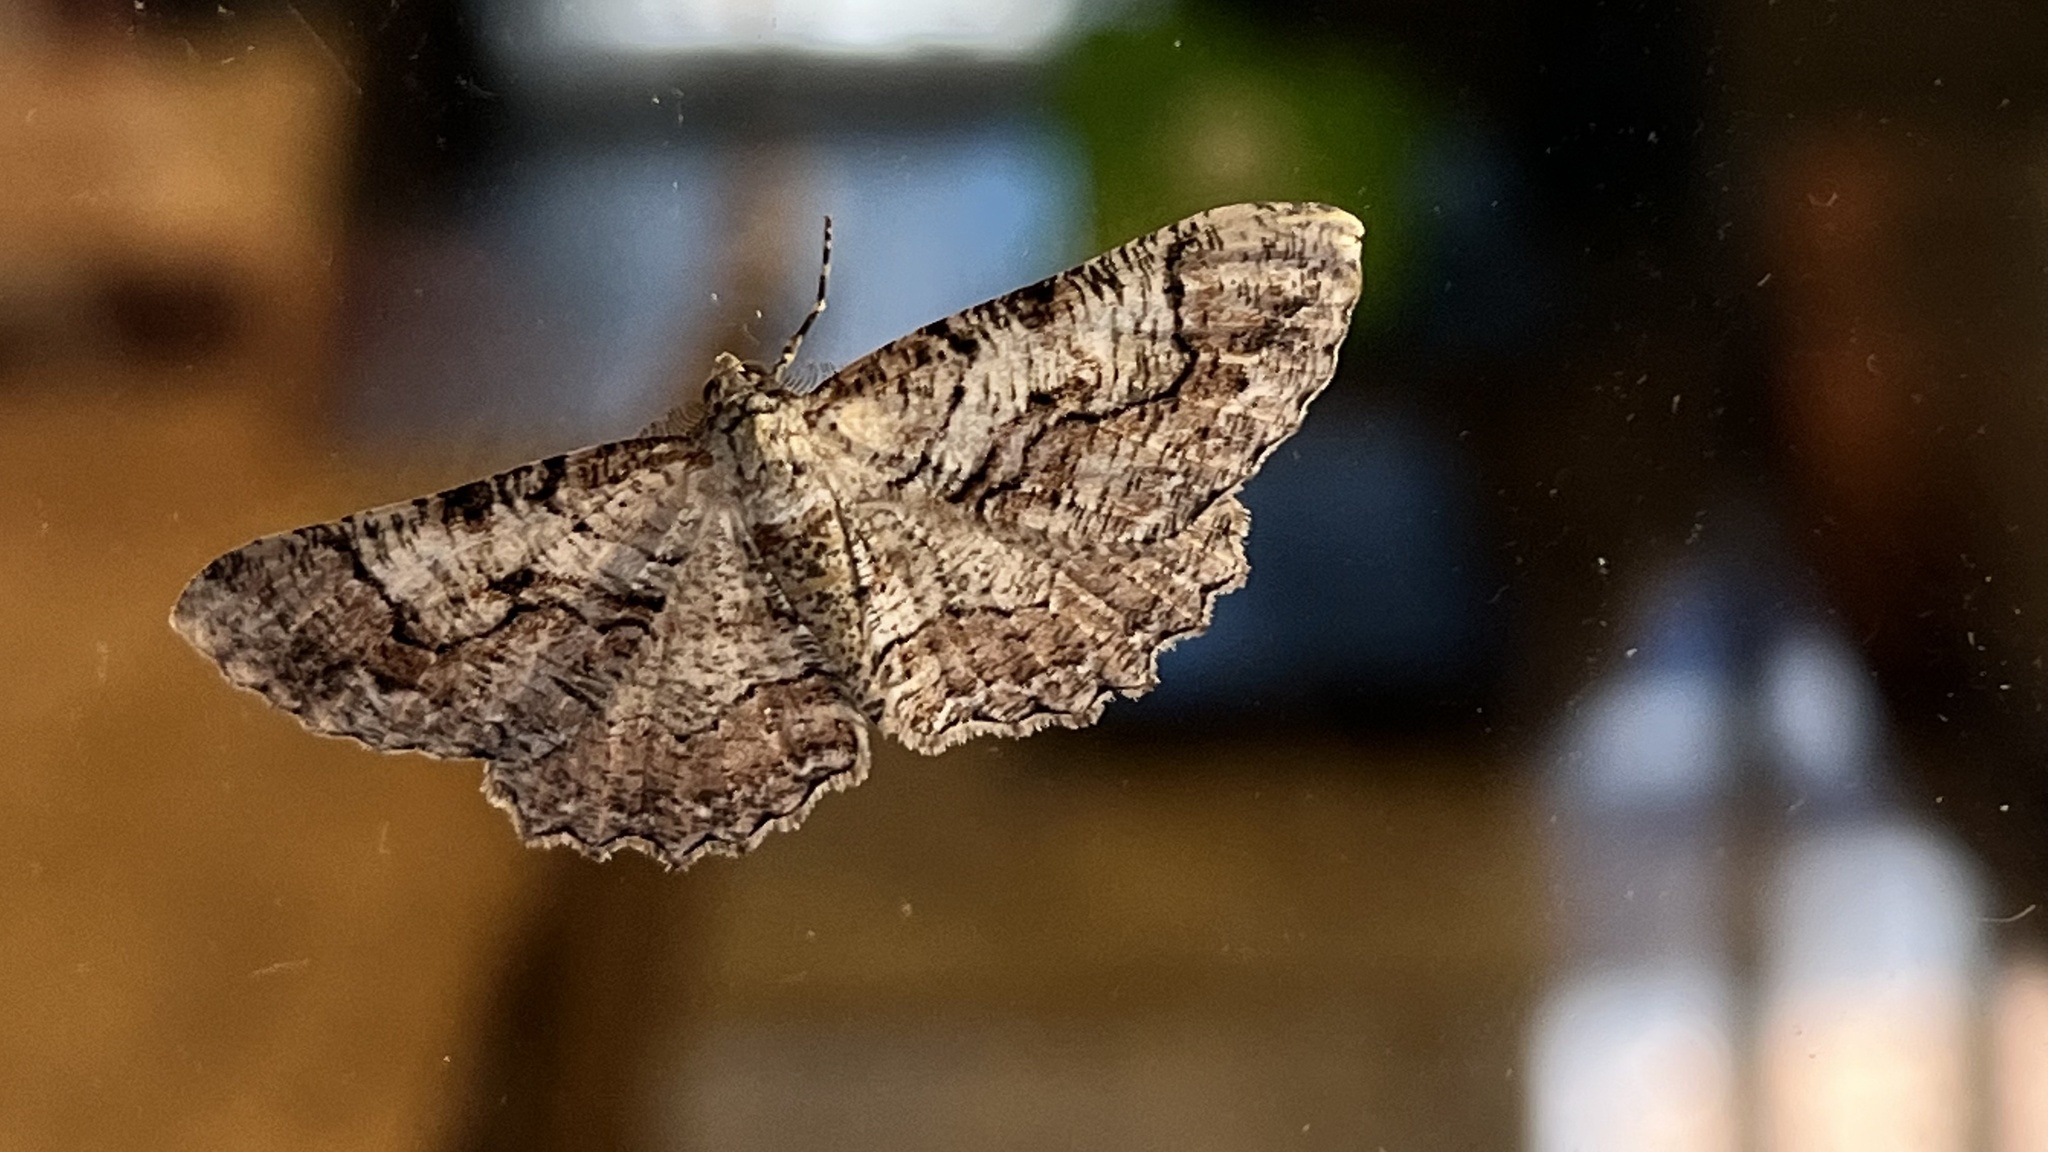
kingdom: Animalia
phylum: Arthropoda
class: Insecta
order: Lepidoptera
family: Geometridae
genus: Cymatophora
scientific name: Cymatophora approximaria
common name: Giant gray moth
